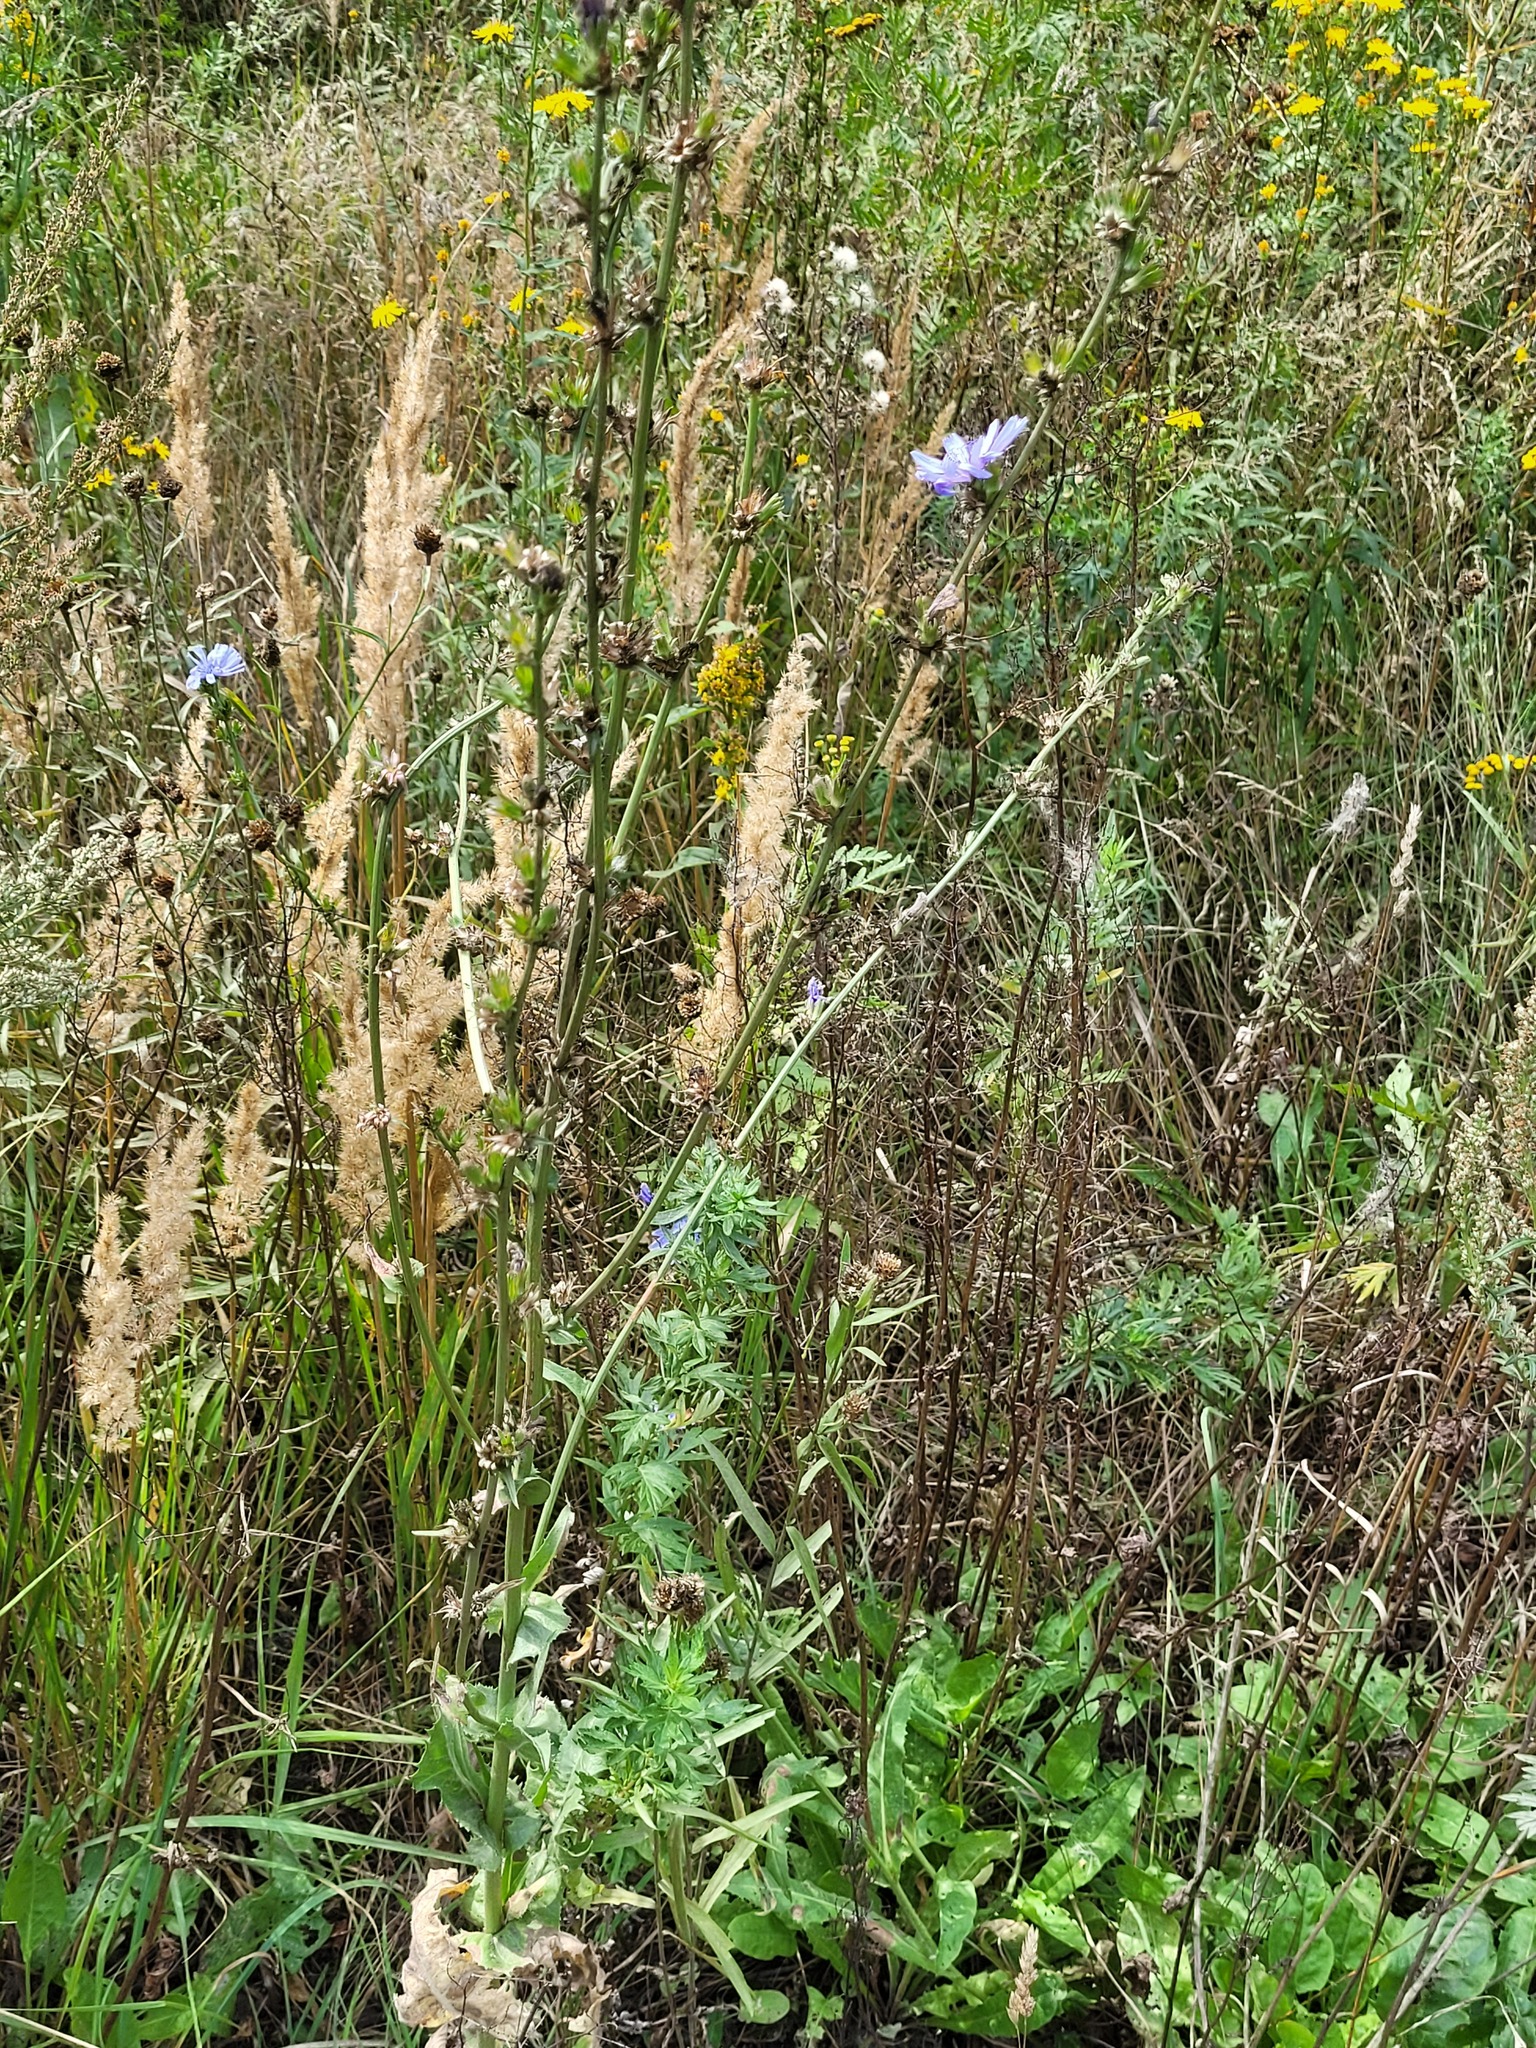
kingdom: Plantae
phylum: Tracheophyta
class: Magnoliopsida
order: Asterales
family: Asteraceae
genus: Cichorium
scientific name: Cichorium intybus
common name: Chicory
